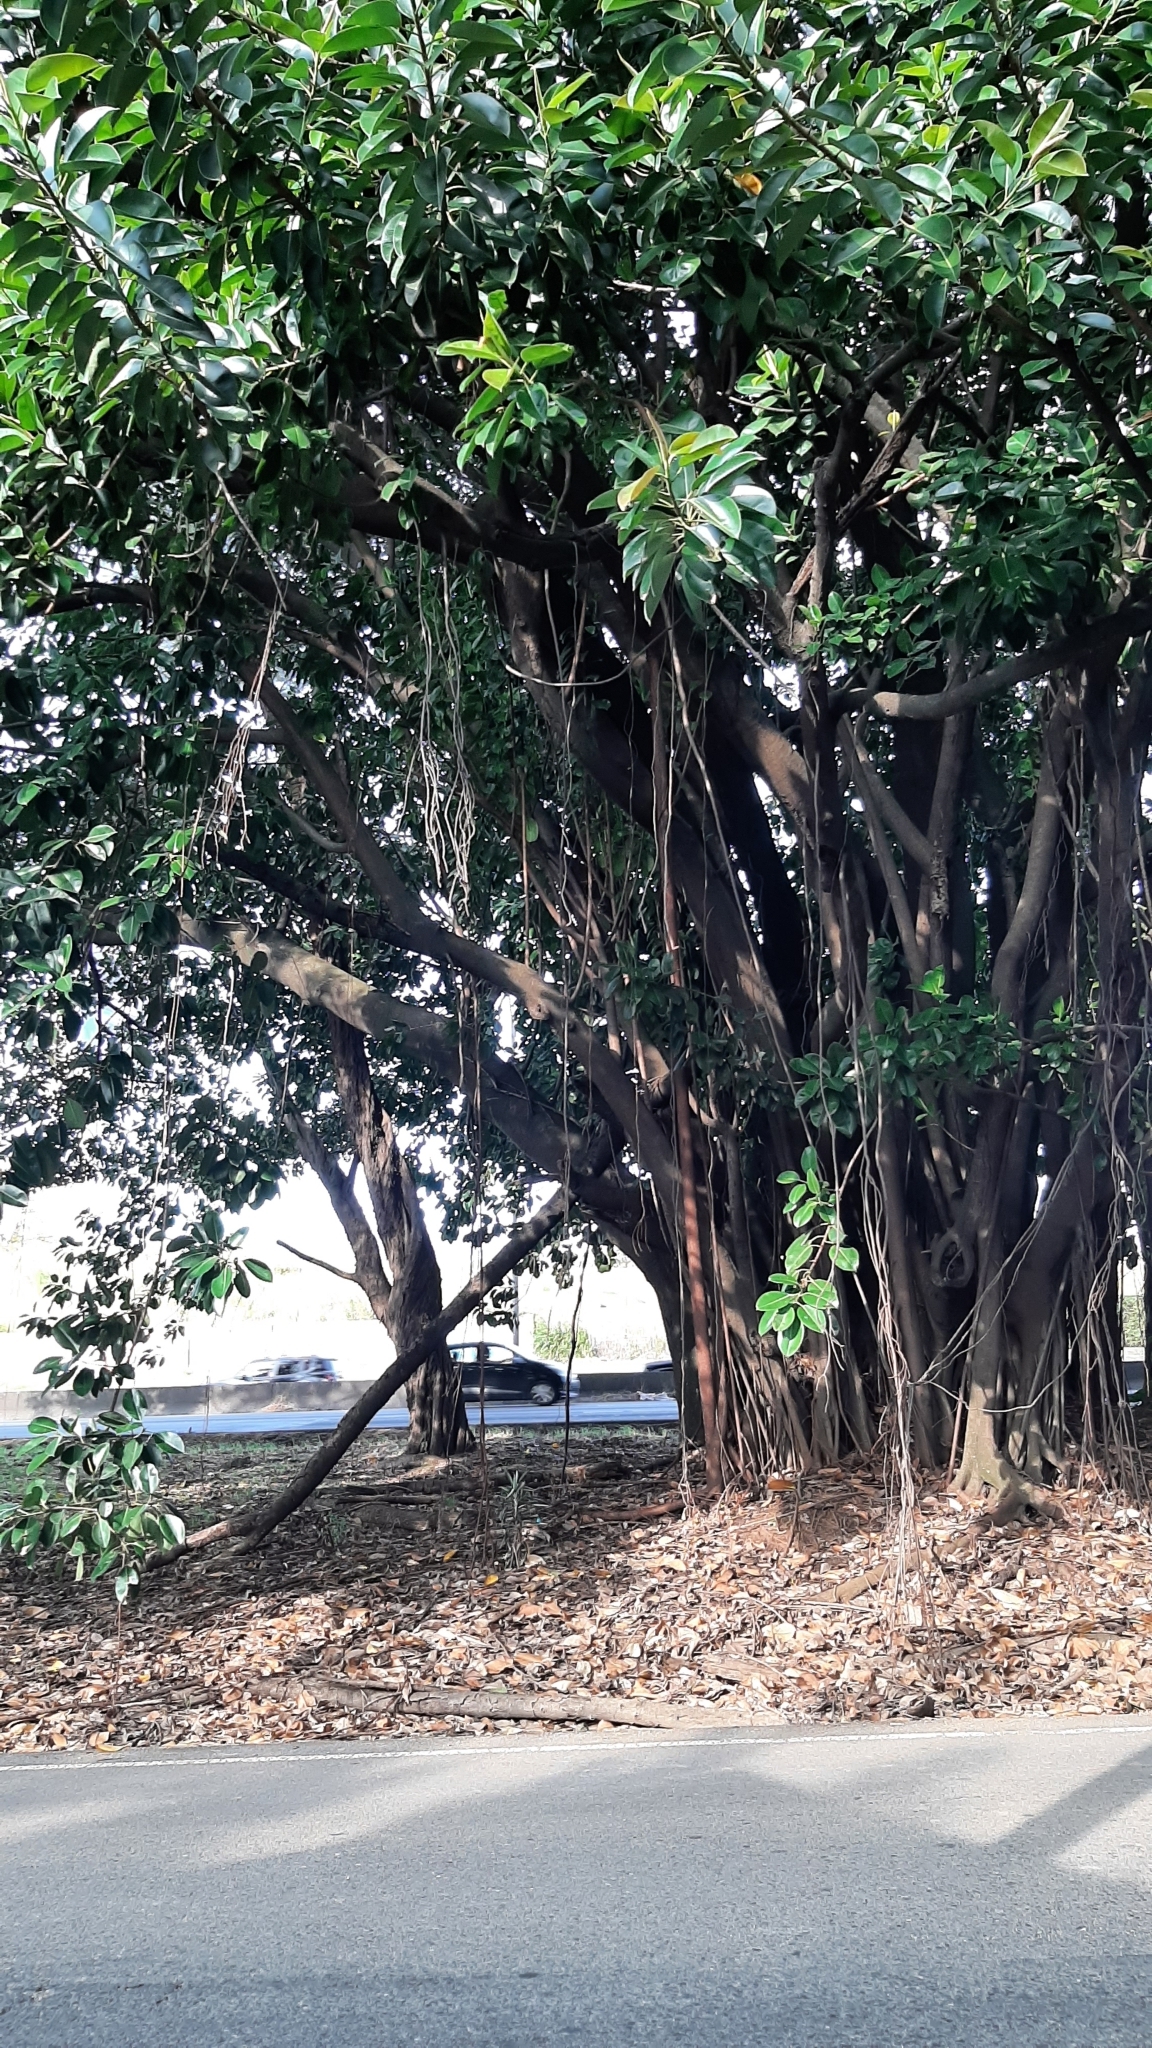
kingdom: Plantae
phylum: Tracheophyta
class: Magnoliopsida
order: Rosales
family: Moraceae
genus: Ficus
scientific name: Ficus elastica
